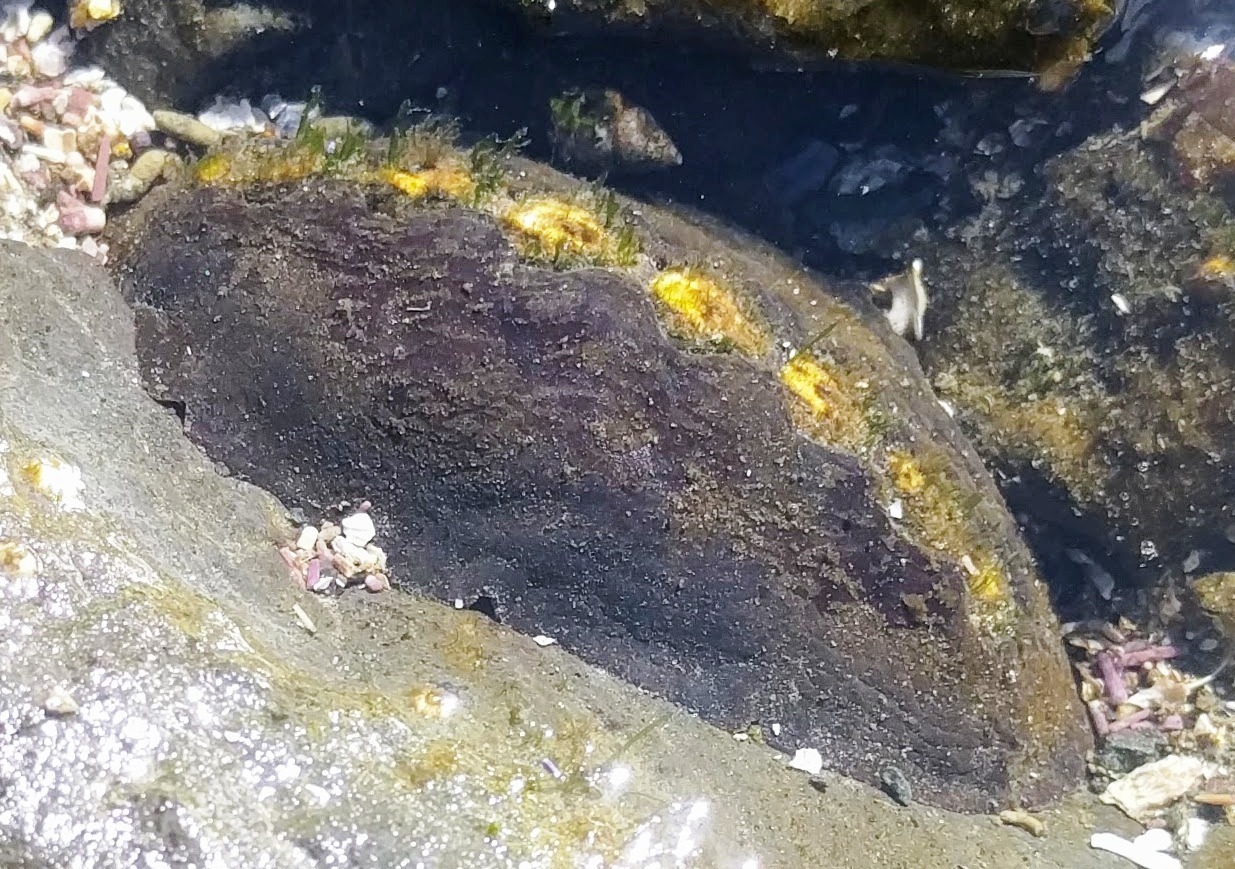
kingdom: Animalia
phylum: Mollusca
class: Polyplacophora
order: Chitonida
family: Mopaliidae
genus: Katharina
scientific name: Katharina tunicata
